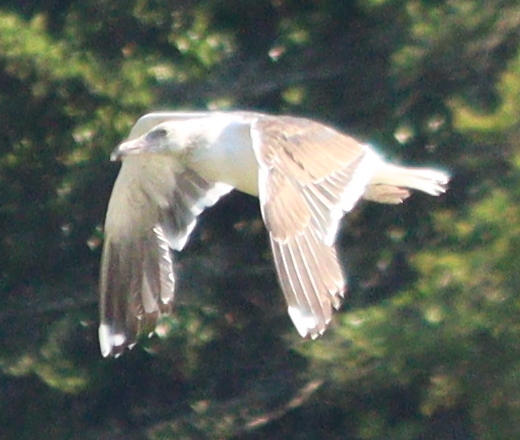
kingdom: Animalia
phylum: Chordata
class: Aves
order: Charadriiformes
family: Laridae
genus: Larus
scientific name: Larus marinus
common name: Great black-backed gull
